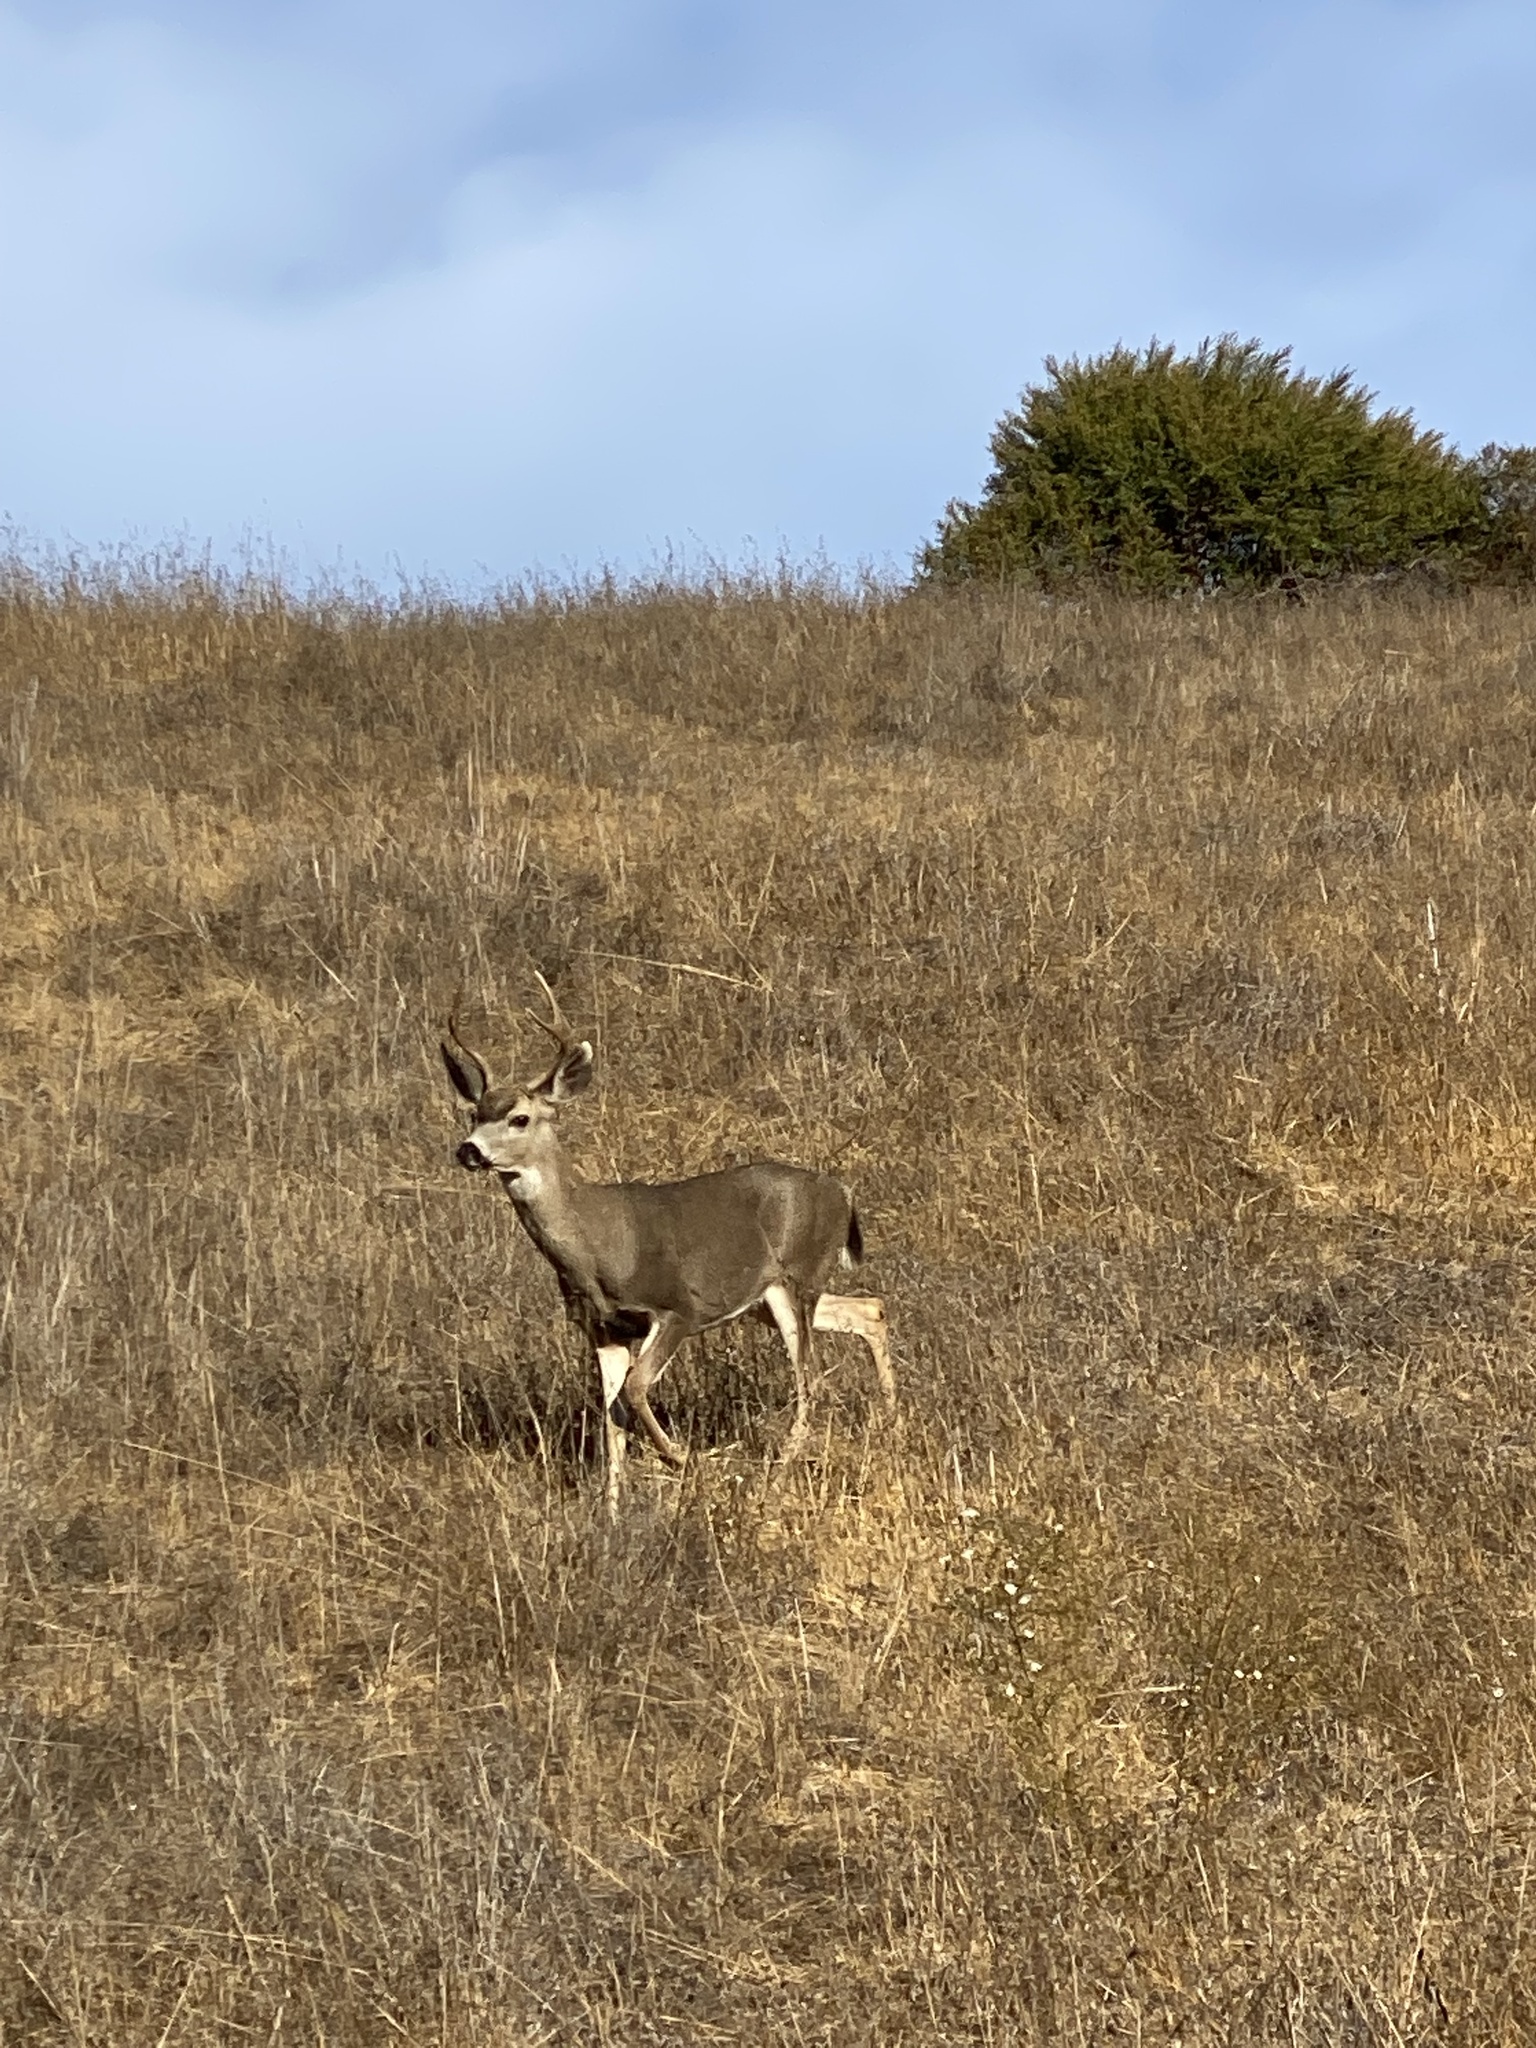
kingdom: Animalia
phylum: Chordata
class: Mammalia
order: Artiodactyla
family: Cervidae
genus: Odocoileus
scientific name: Odocoileus hemionus
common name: Mule deer
